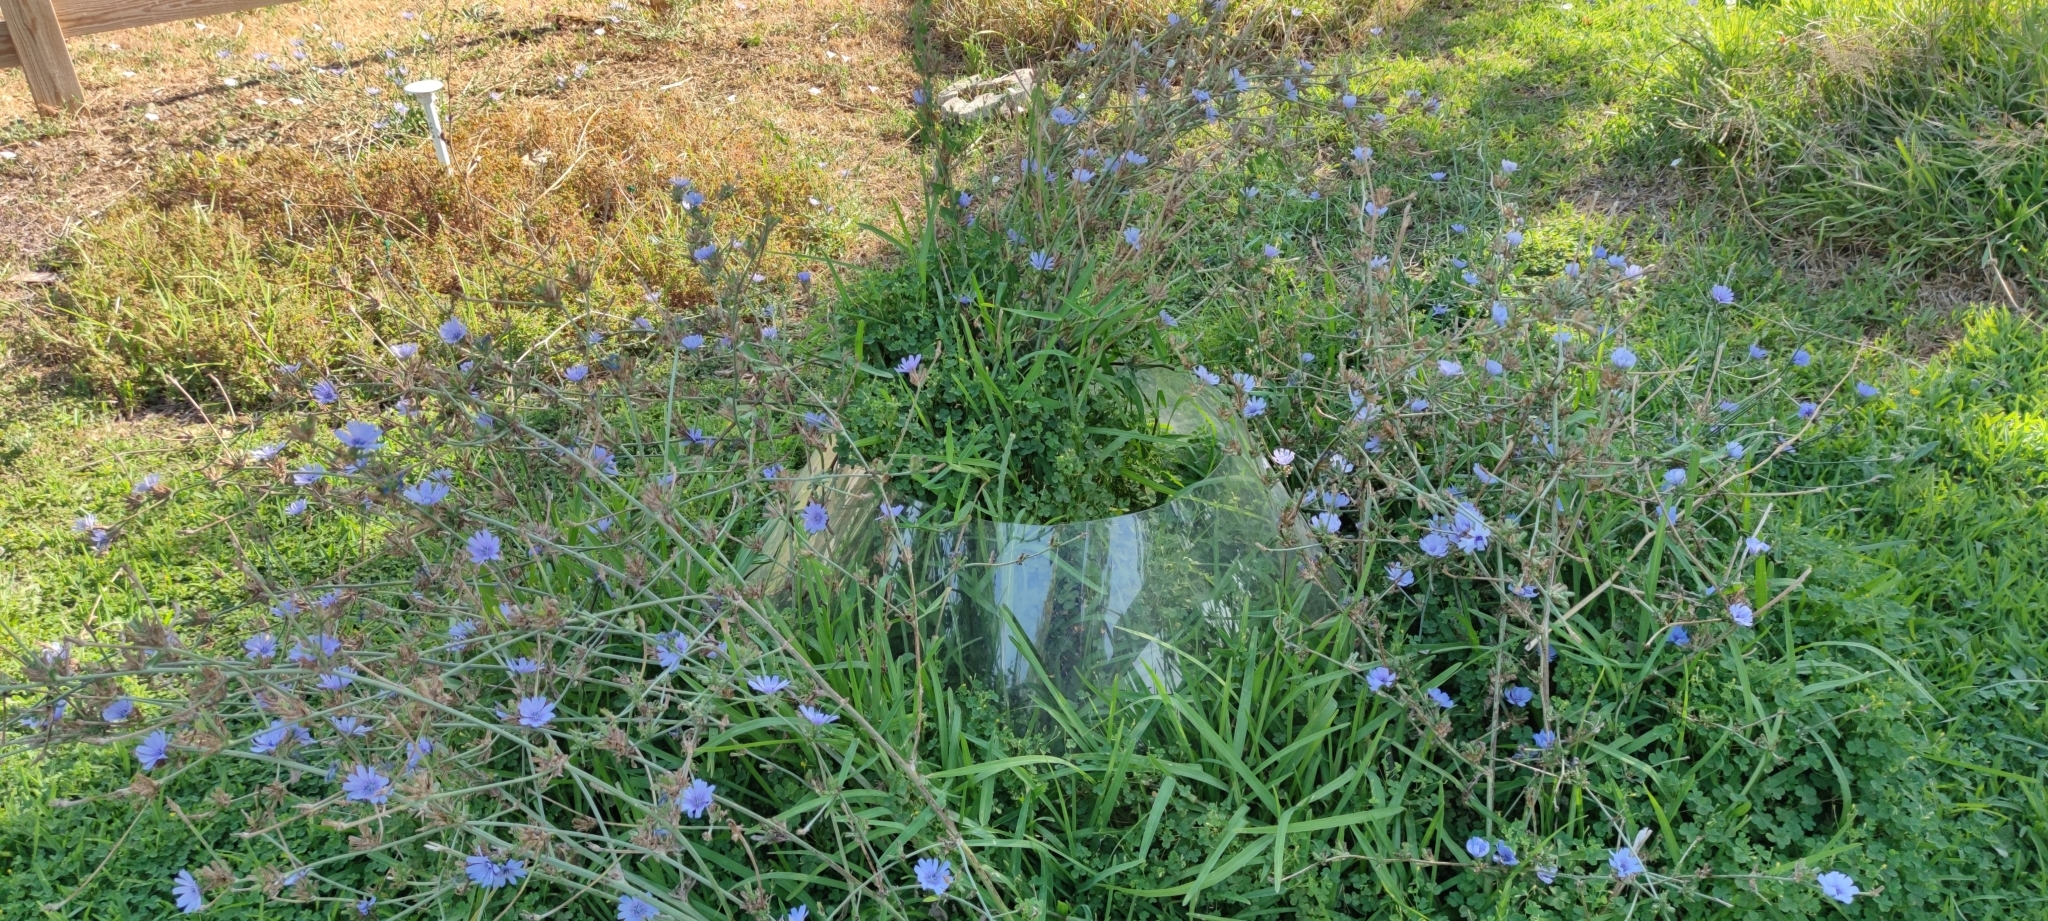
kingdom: Plantae
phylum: Tracheophyta
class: Magnoliopsida
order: Asterales
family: Asteraceae
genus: Cichorium
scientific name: Cichorium intybus
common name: Chicory
